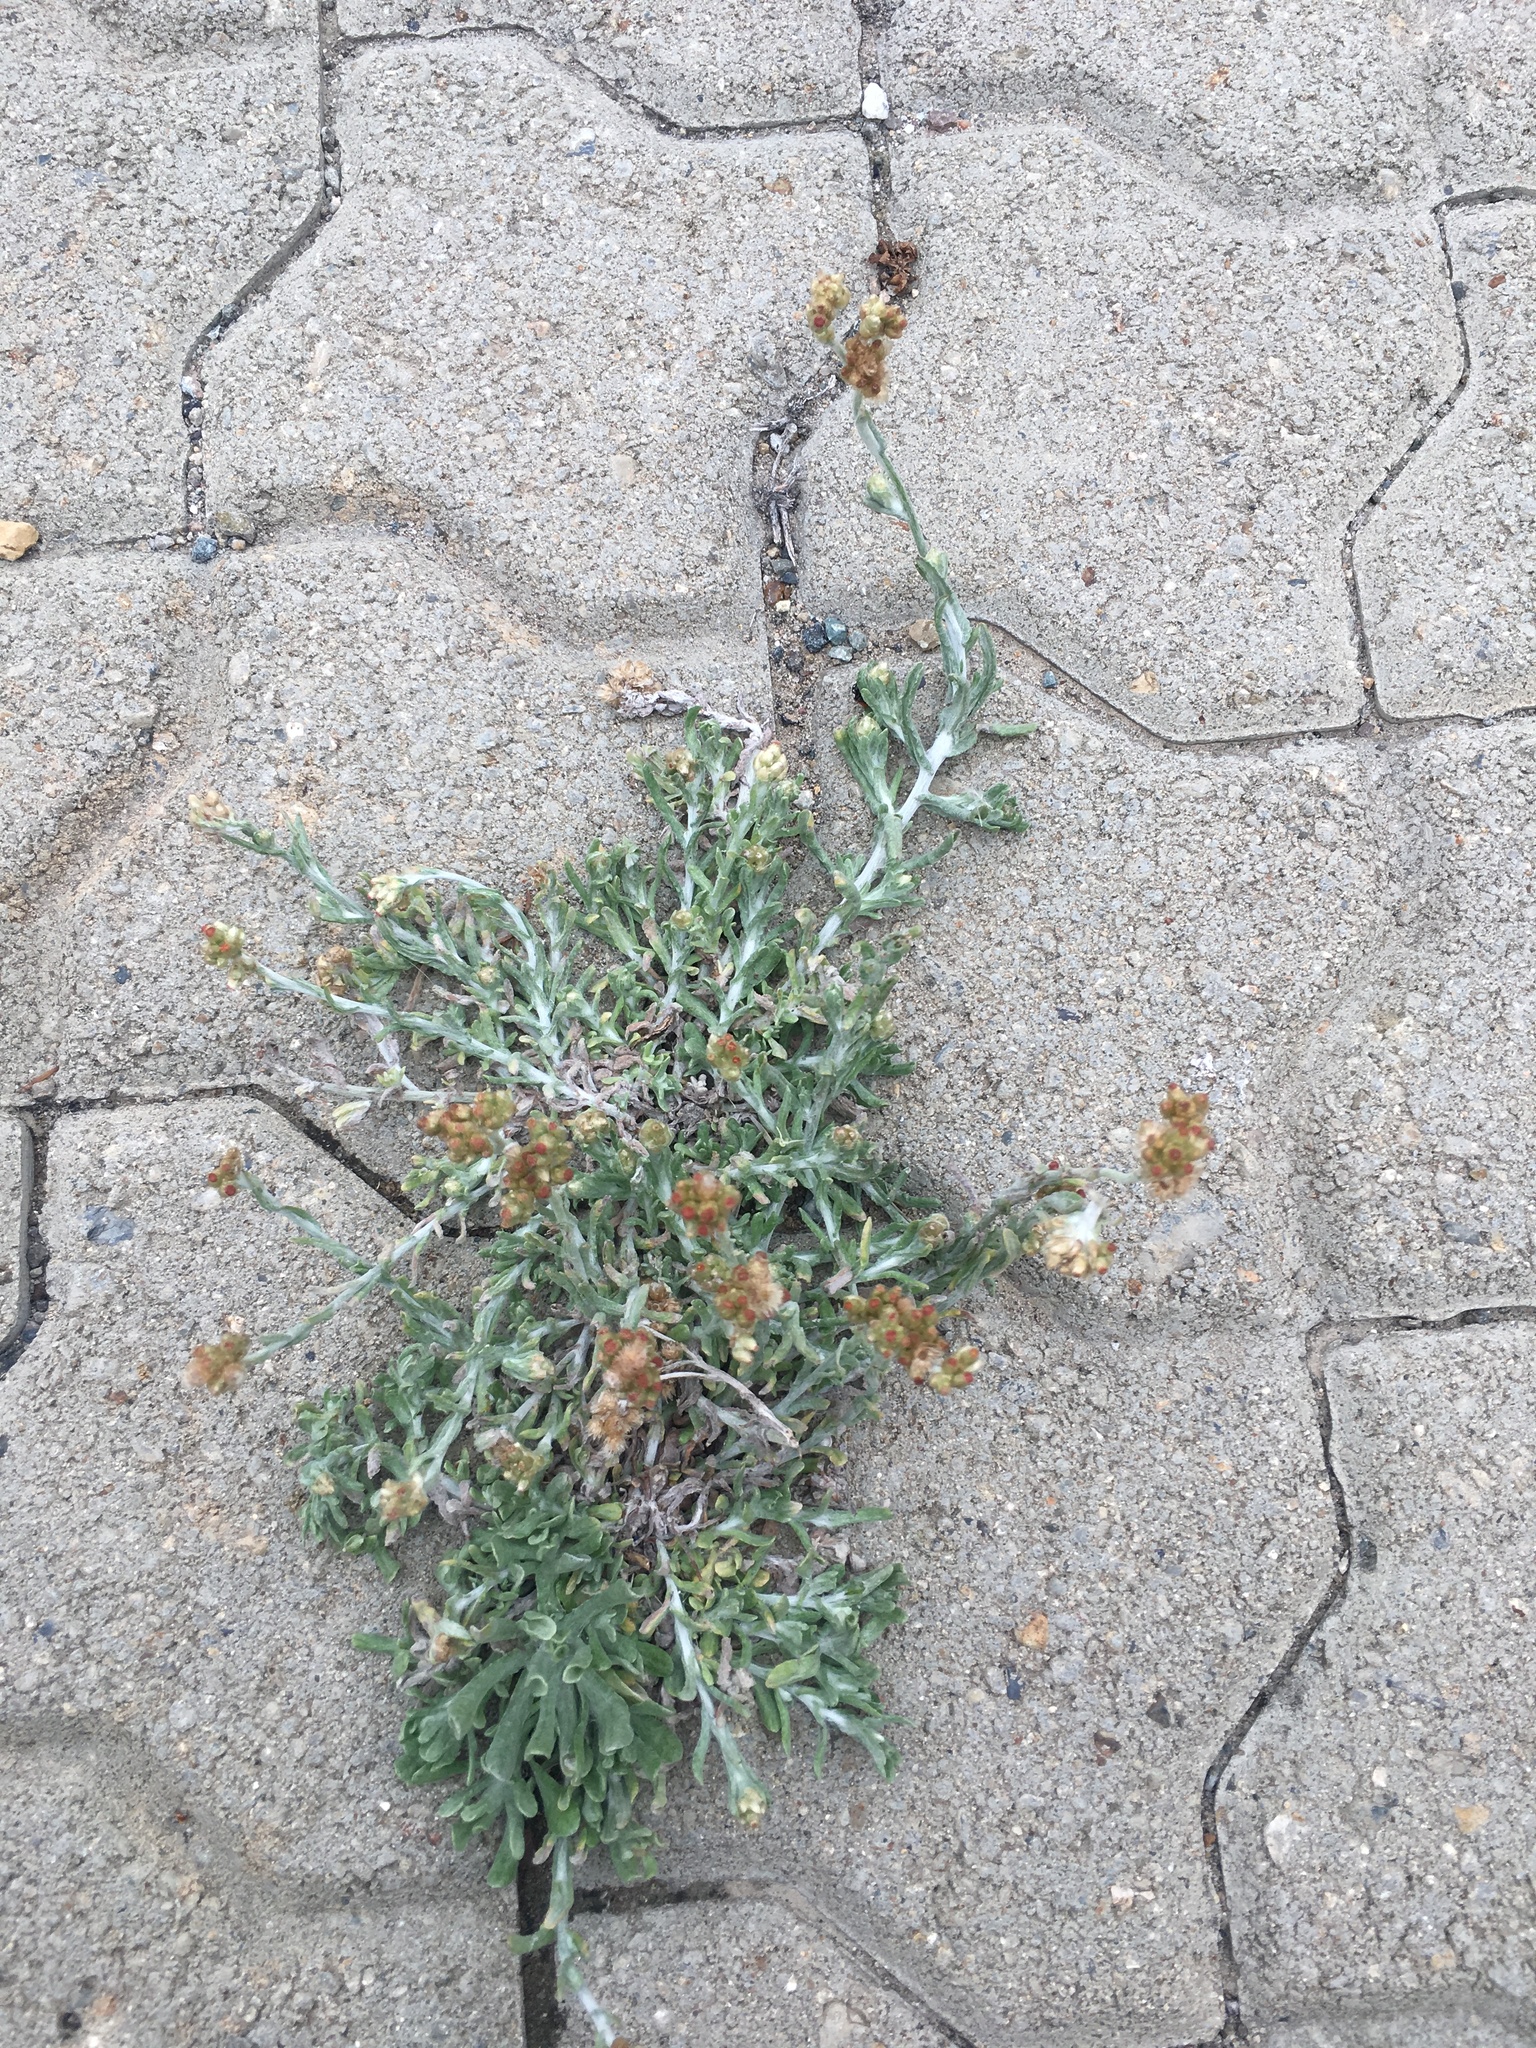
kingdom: Plantae
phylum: Tracheophyta
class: Magnoliopsida
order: Asterales
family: Asteraceae
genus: Helichrysum
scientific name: Helichrysum luteoalbum
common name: Daisy
